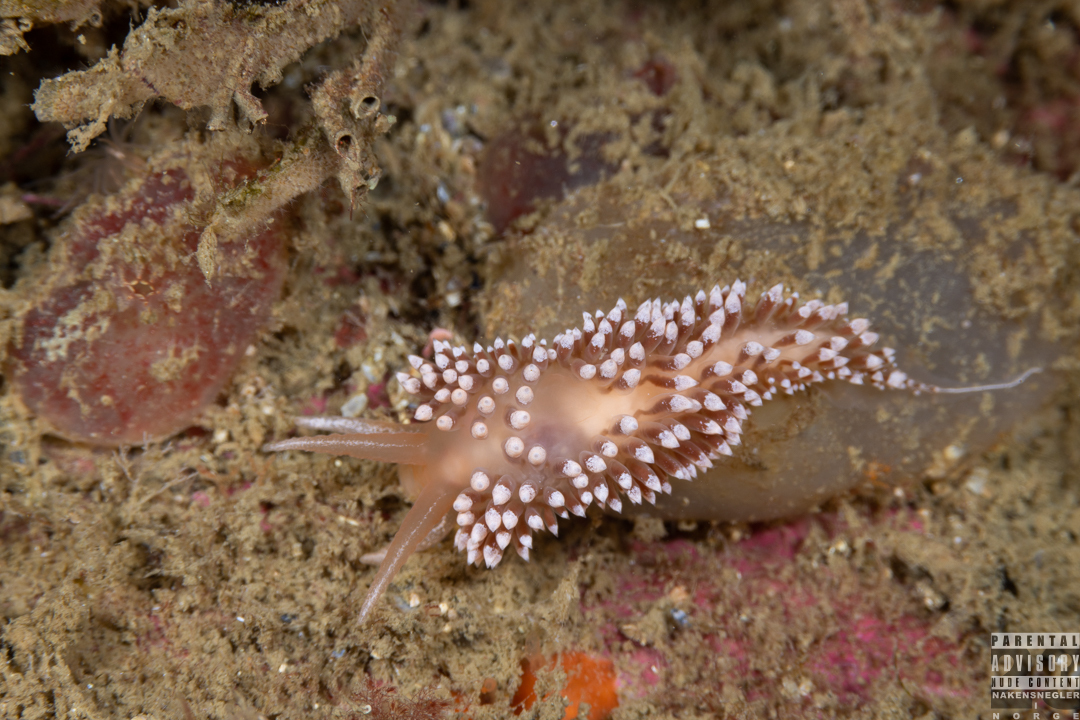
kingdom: Animalia
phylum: Mollusca
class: Gastropoda
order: Nudibranchia
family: Coryphellidae
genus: Coryphella
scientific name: Coryphella verrucosa
